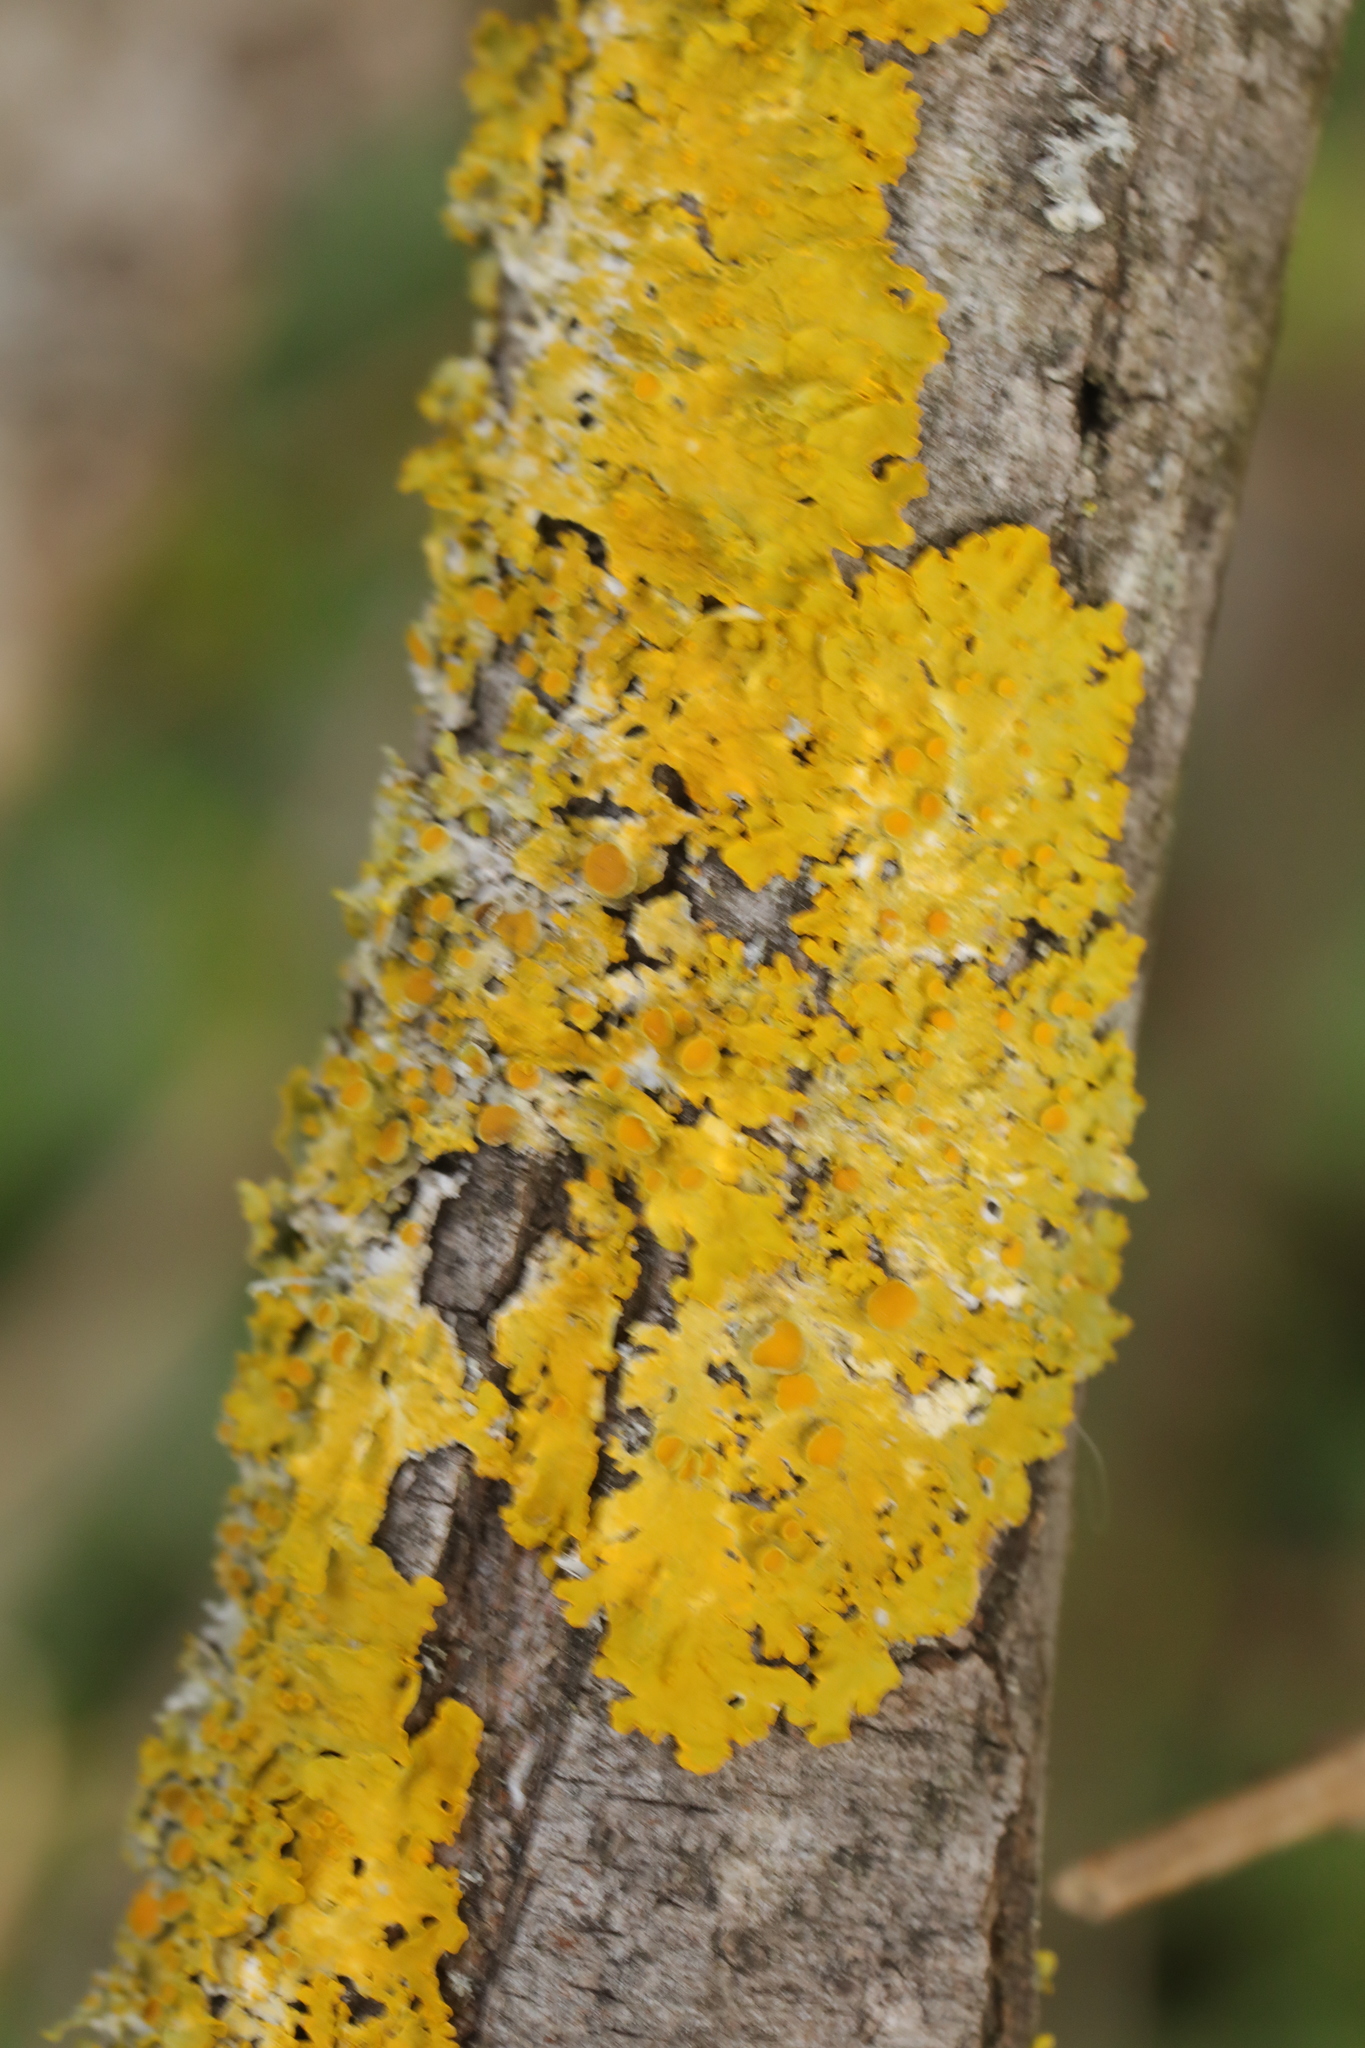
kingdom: Fungi
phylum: Ascomycota
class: Lecanoromycetes
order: Teloschistales
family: Teloschistaceae
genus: Xanthoria
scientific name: Xanthoria parietina
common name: Common orange lichen
